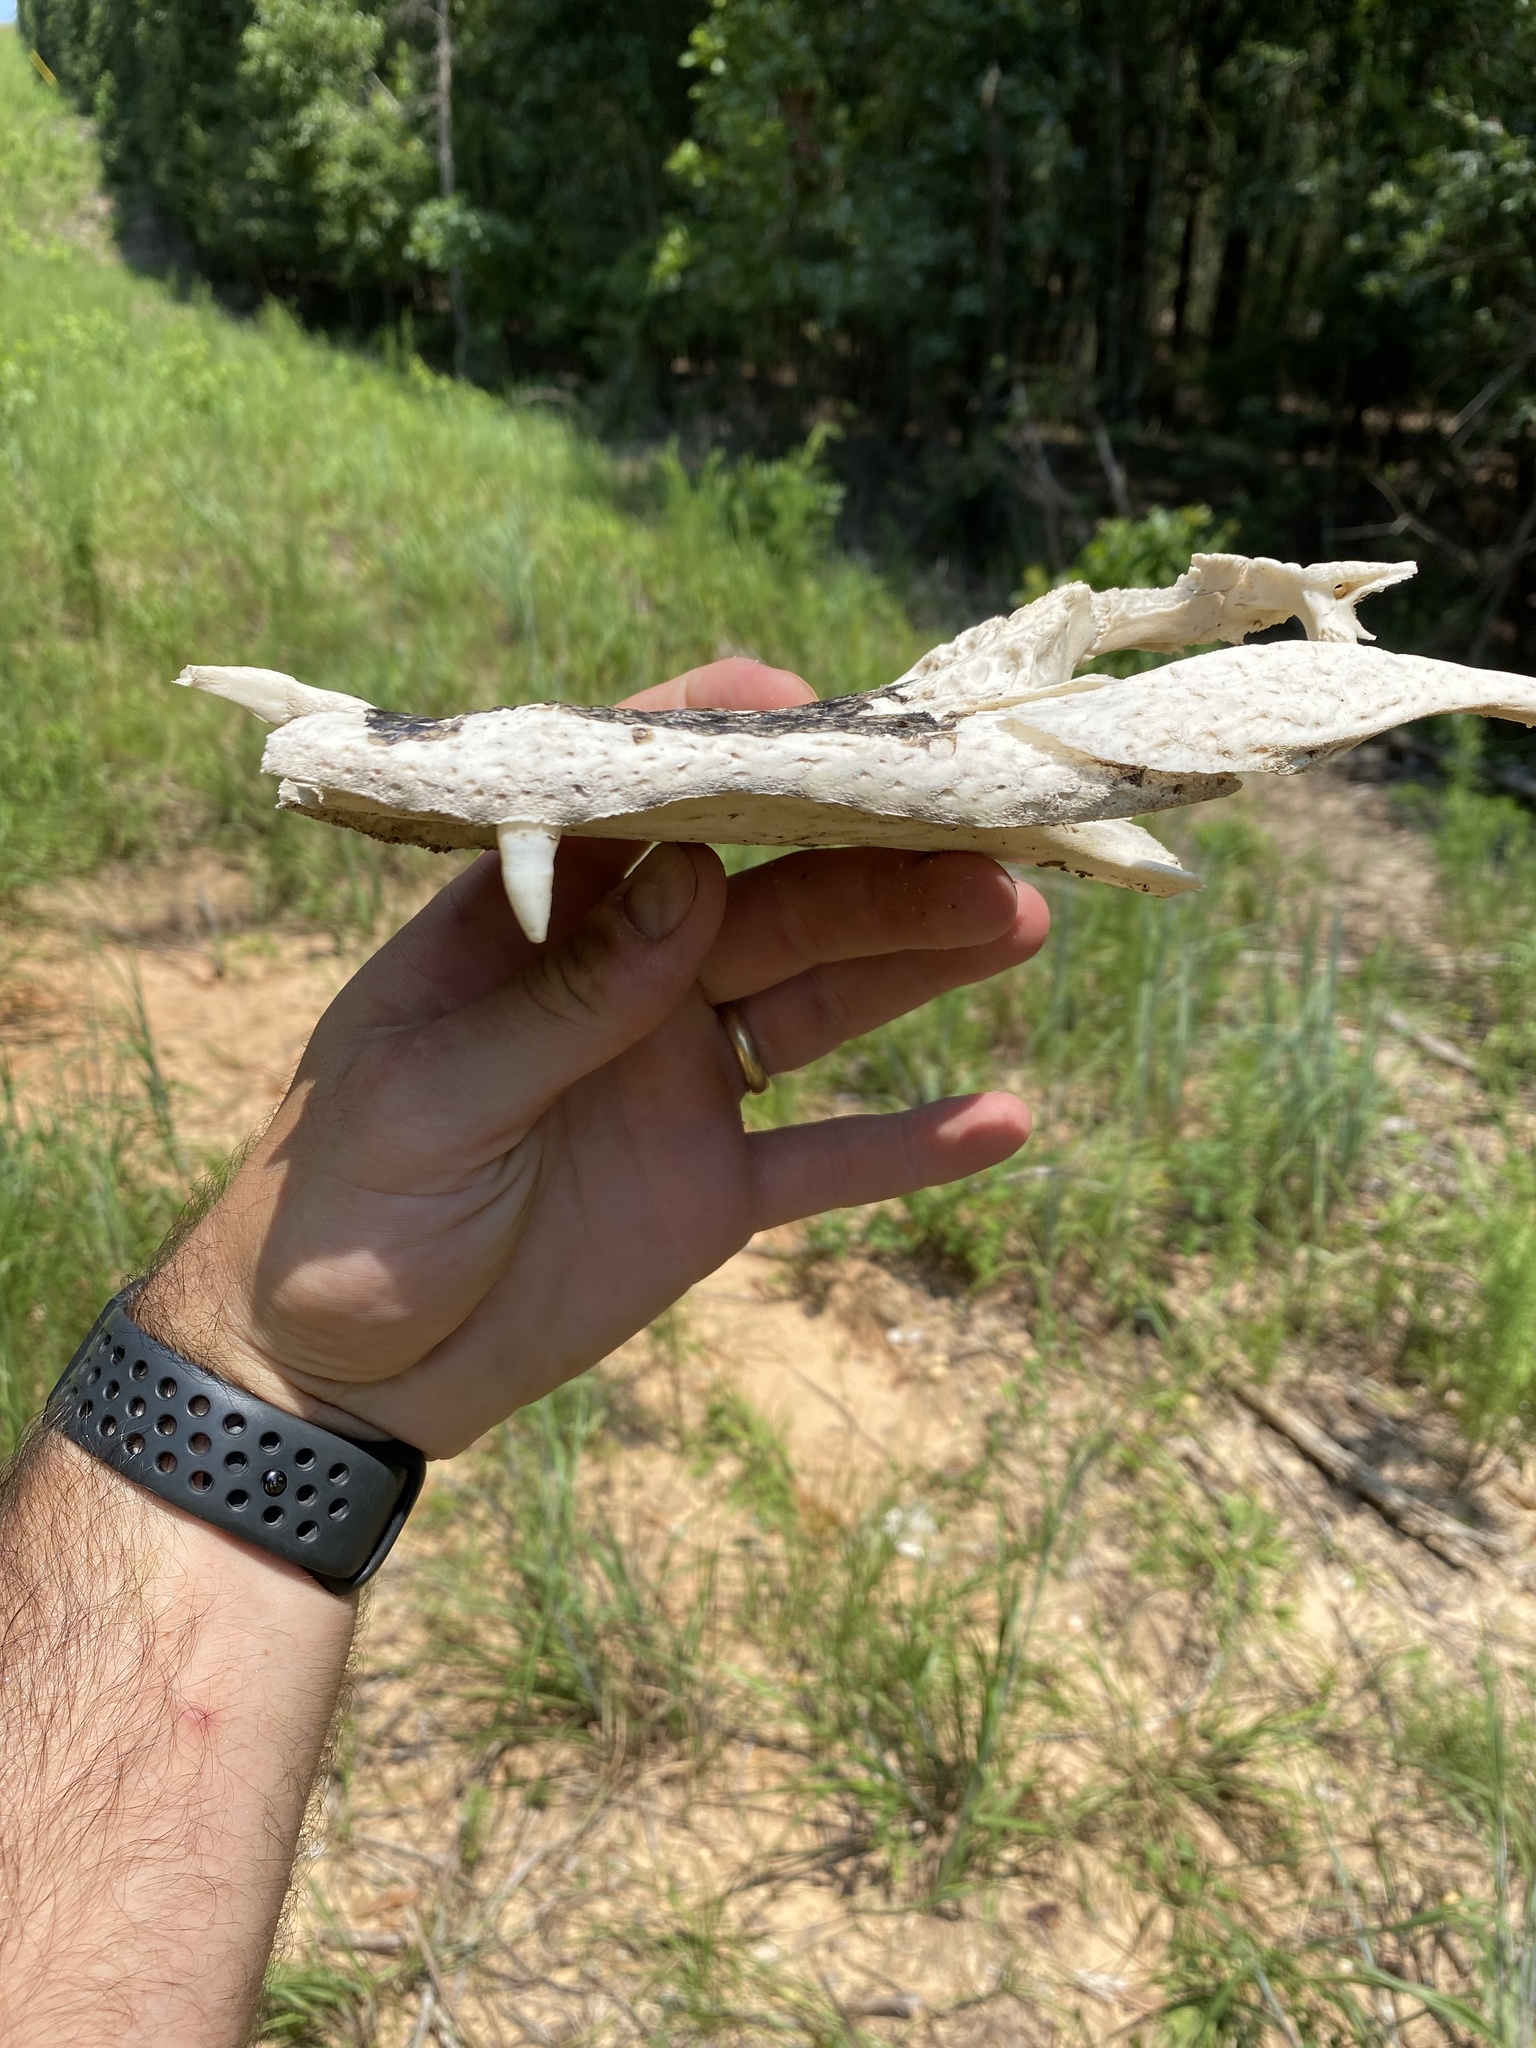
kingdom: Animalia
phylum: Chordata
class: Crocodylia
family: Alligatoridae
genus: Alligator
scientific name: Alligator mississippiensis
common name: American alligator
